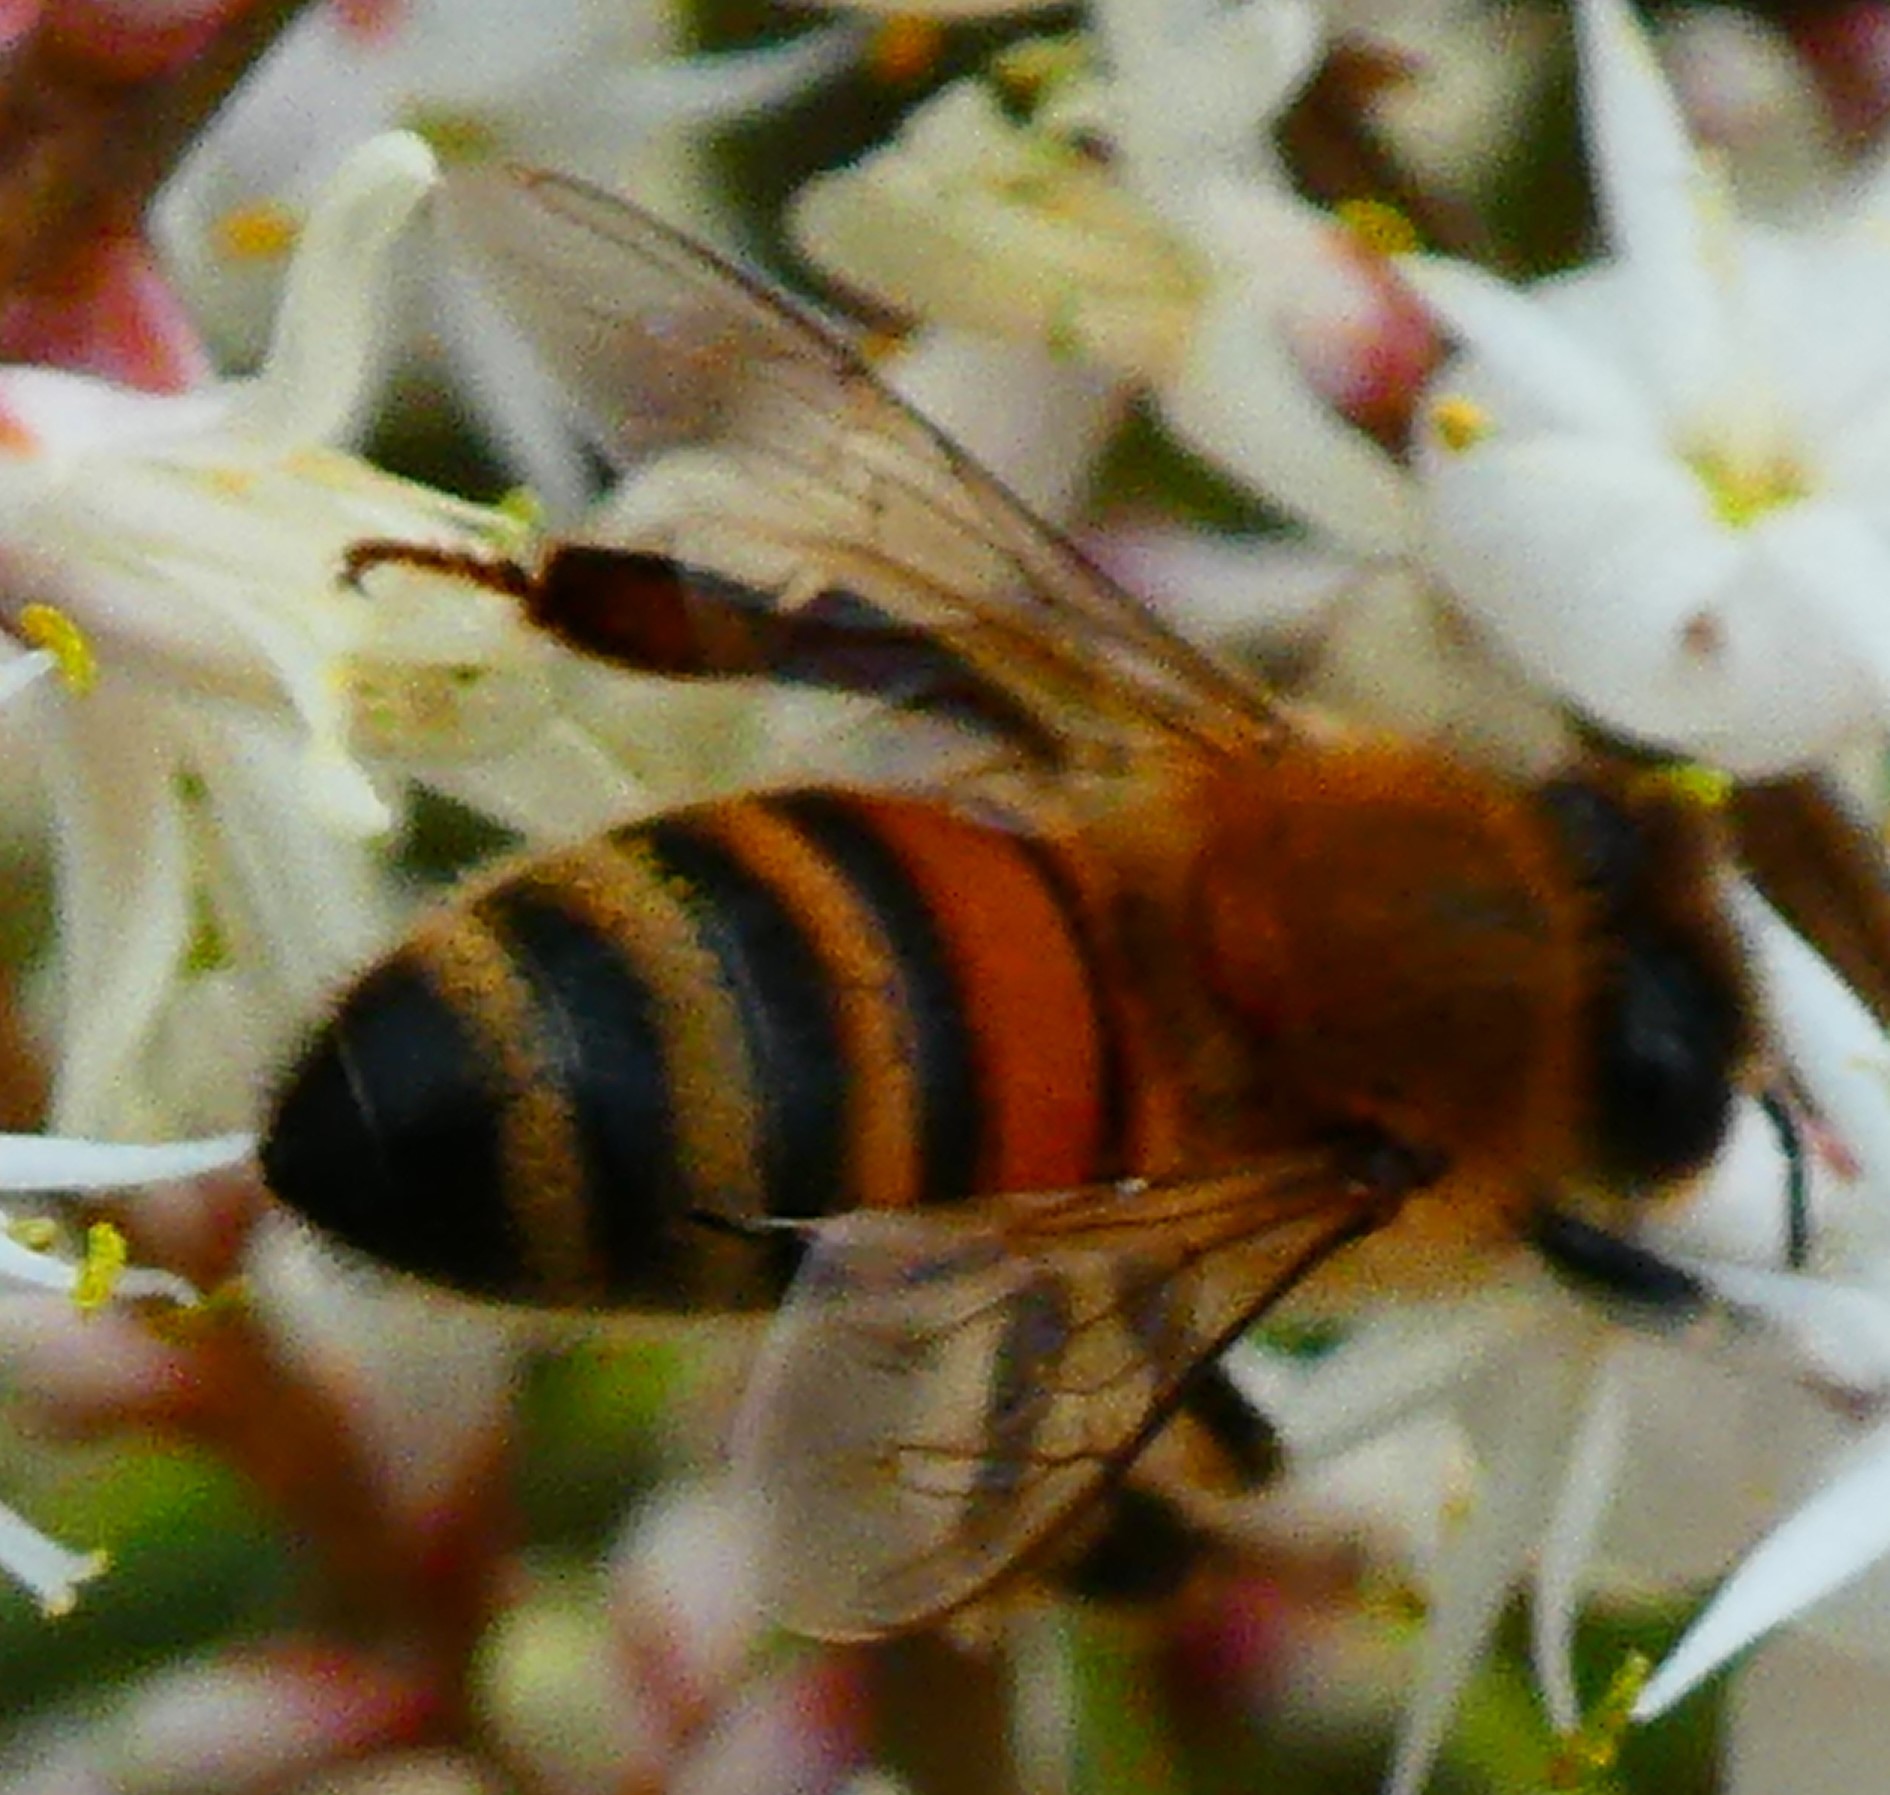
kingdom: Animalia
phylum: Arthropoda
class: Insecta
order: Hymenoptera
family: Apidae
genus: Apis
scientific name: Apis mellifera
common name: Honey bee
